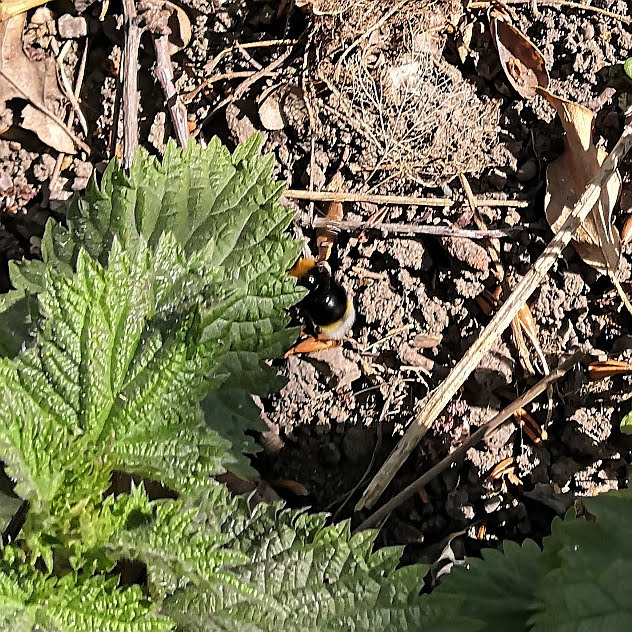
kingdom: Animalia
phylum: Arthropoda
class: Insecta
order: Hymenoptera
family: Apidae
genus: Bombus
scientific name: Bombus vestalis
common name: Vestal cuckoo bee
